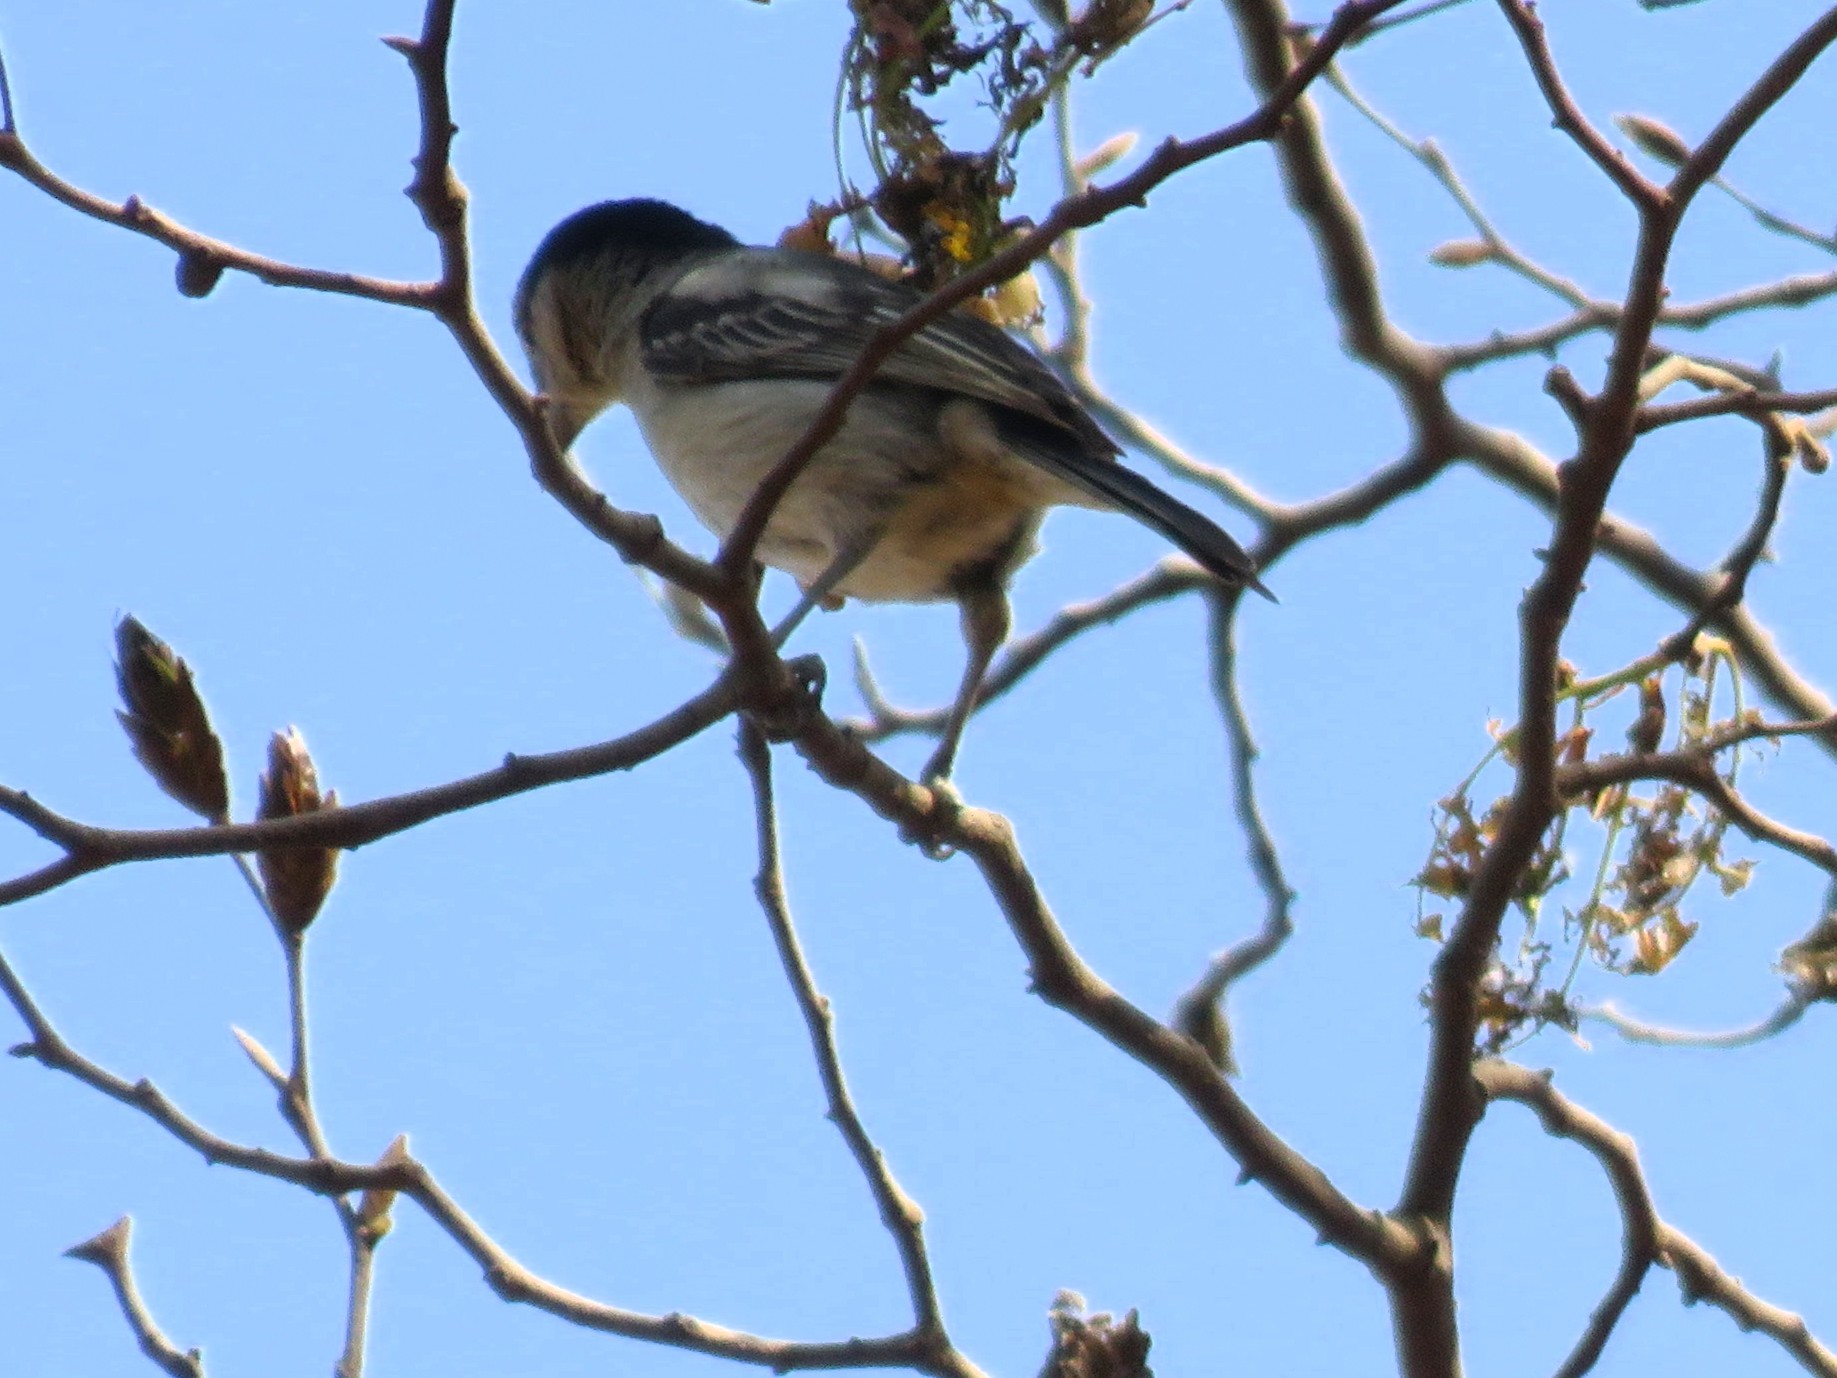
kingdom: Animalia
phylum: Chordata
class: Aves
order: Passeriformes
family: Malaconotidae
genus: Dryoscopus
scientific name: Dryoscopus cubla
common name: Black-backed puffback
